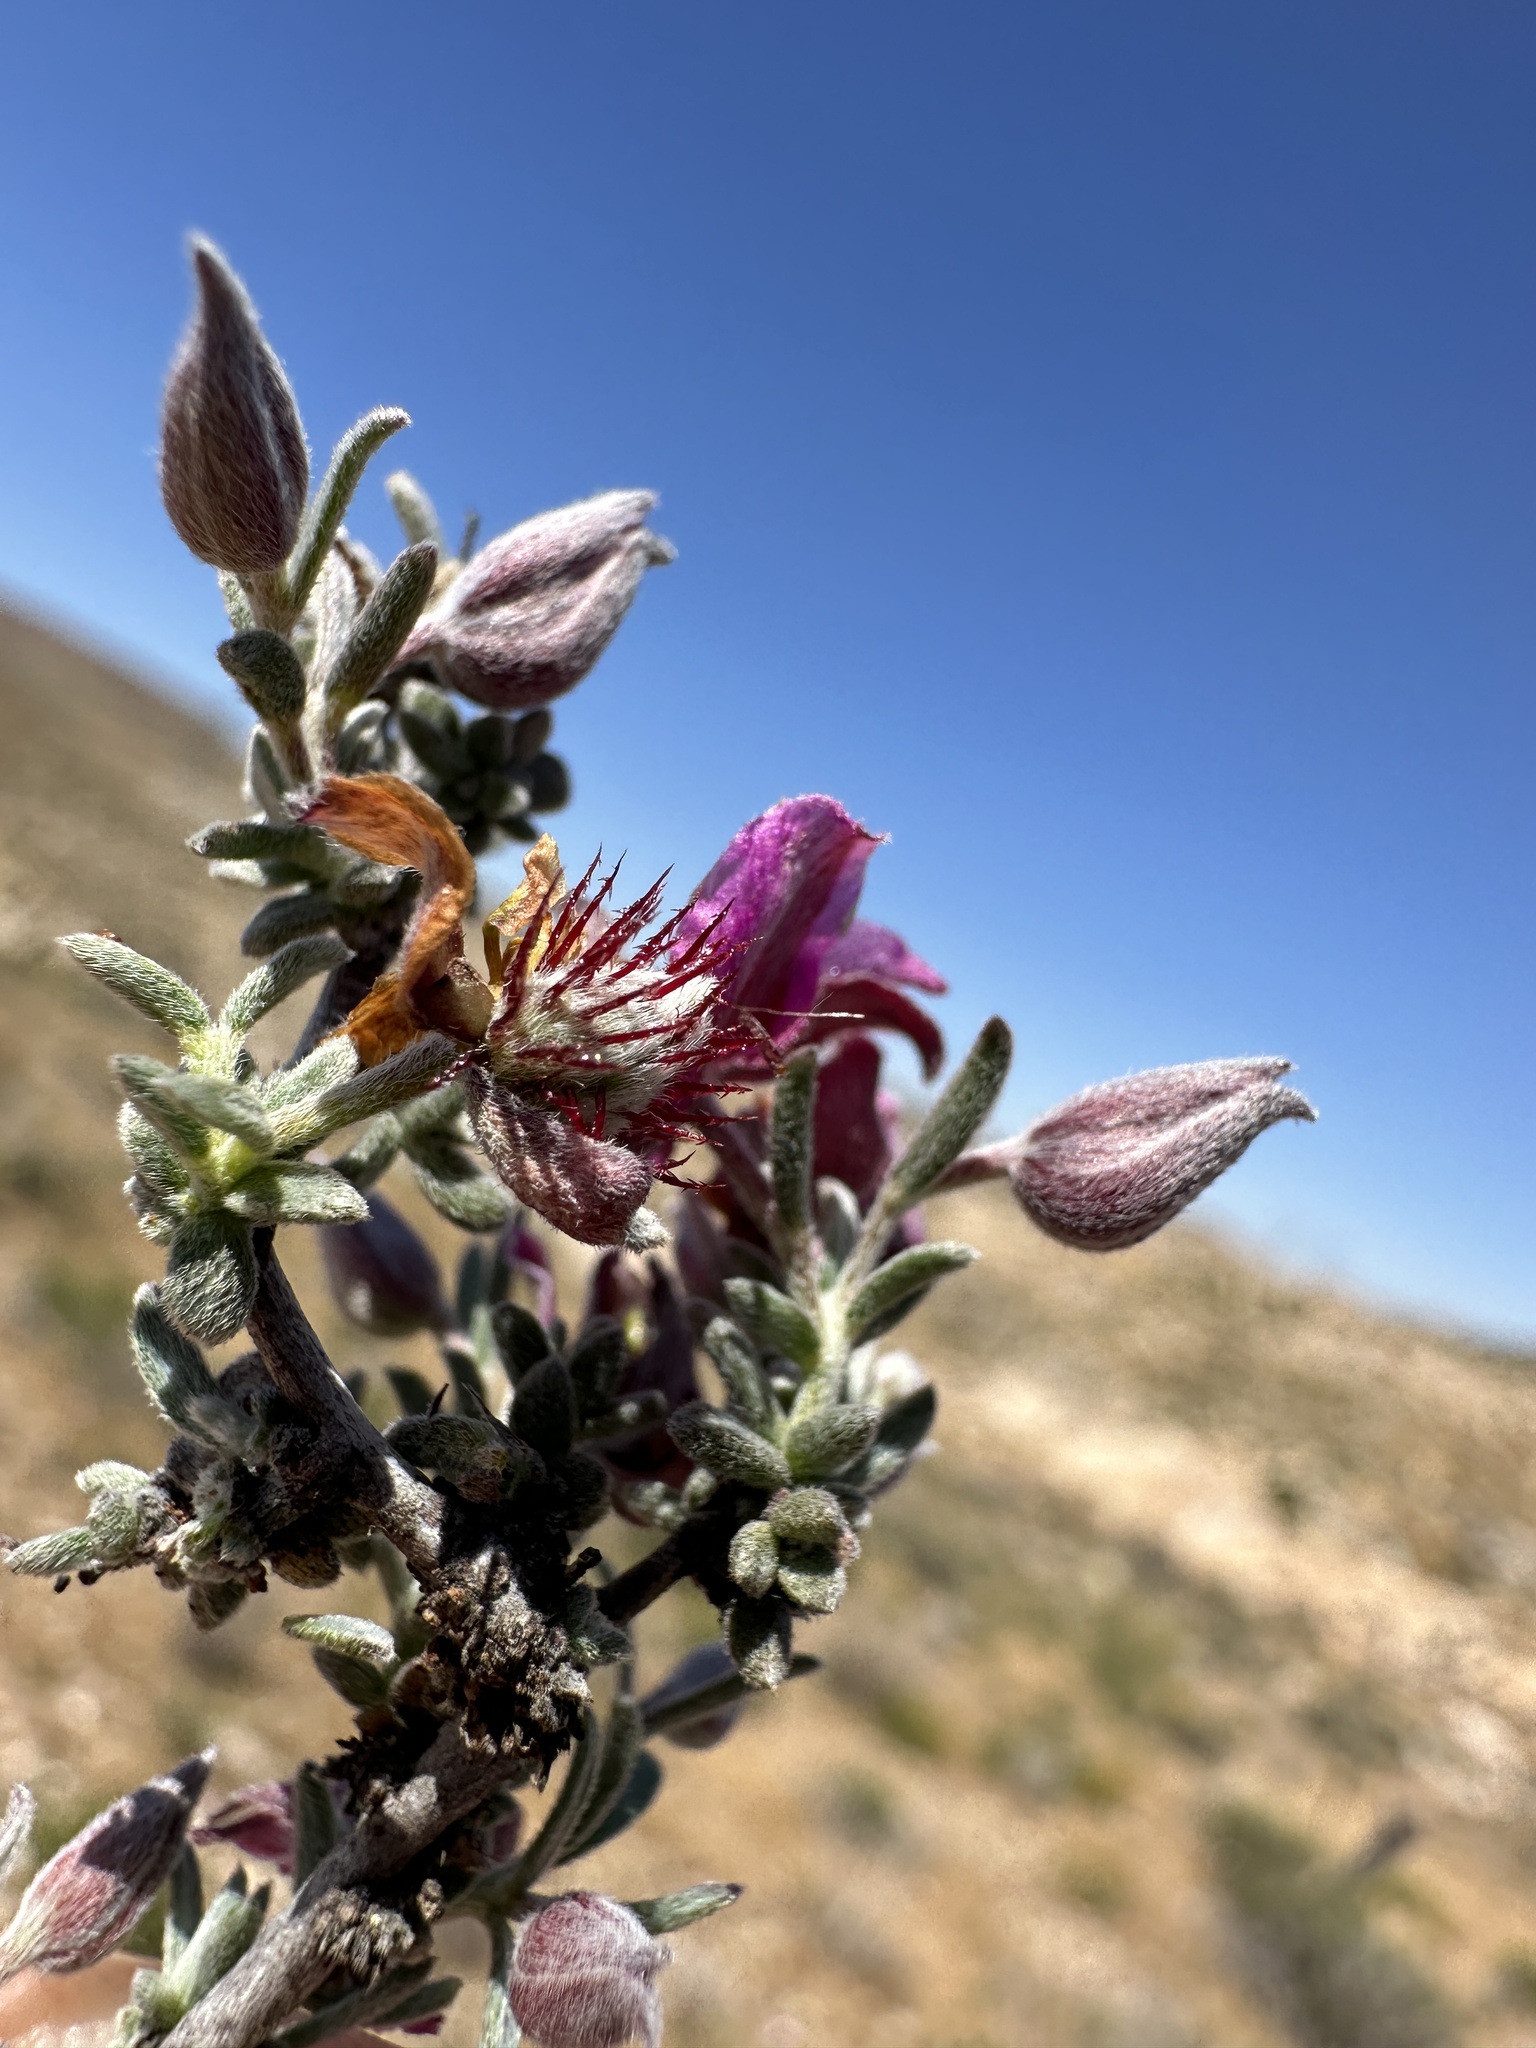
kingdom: Plantae
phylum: Tracheophyta
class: Magnoliopsida
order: Zygophyllales
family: Krameriaceae
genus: Krameria
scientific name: Krameria erecta
